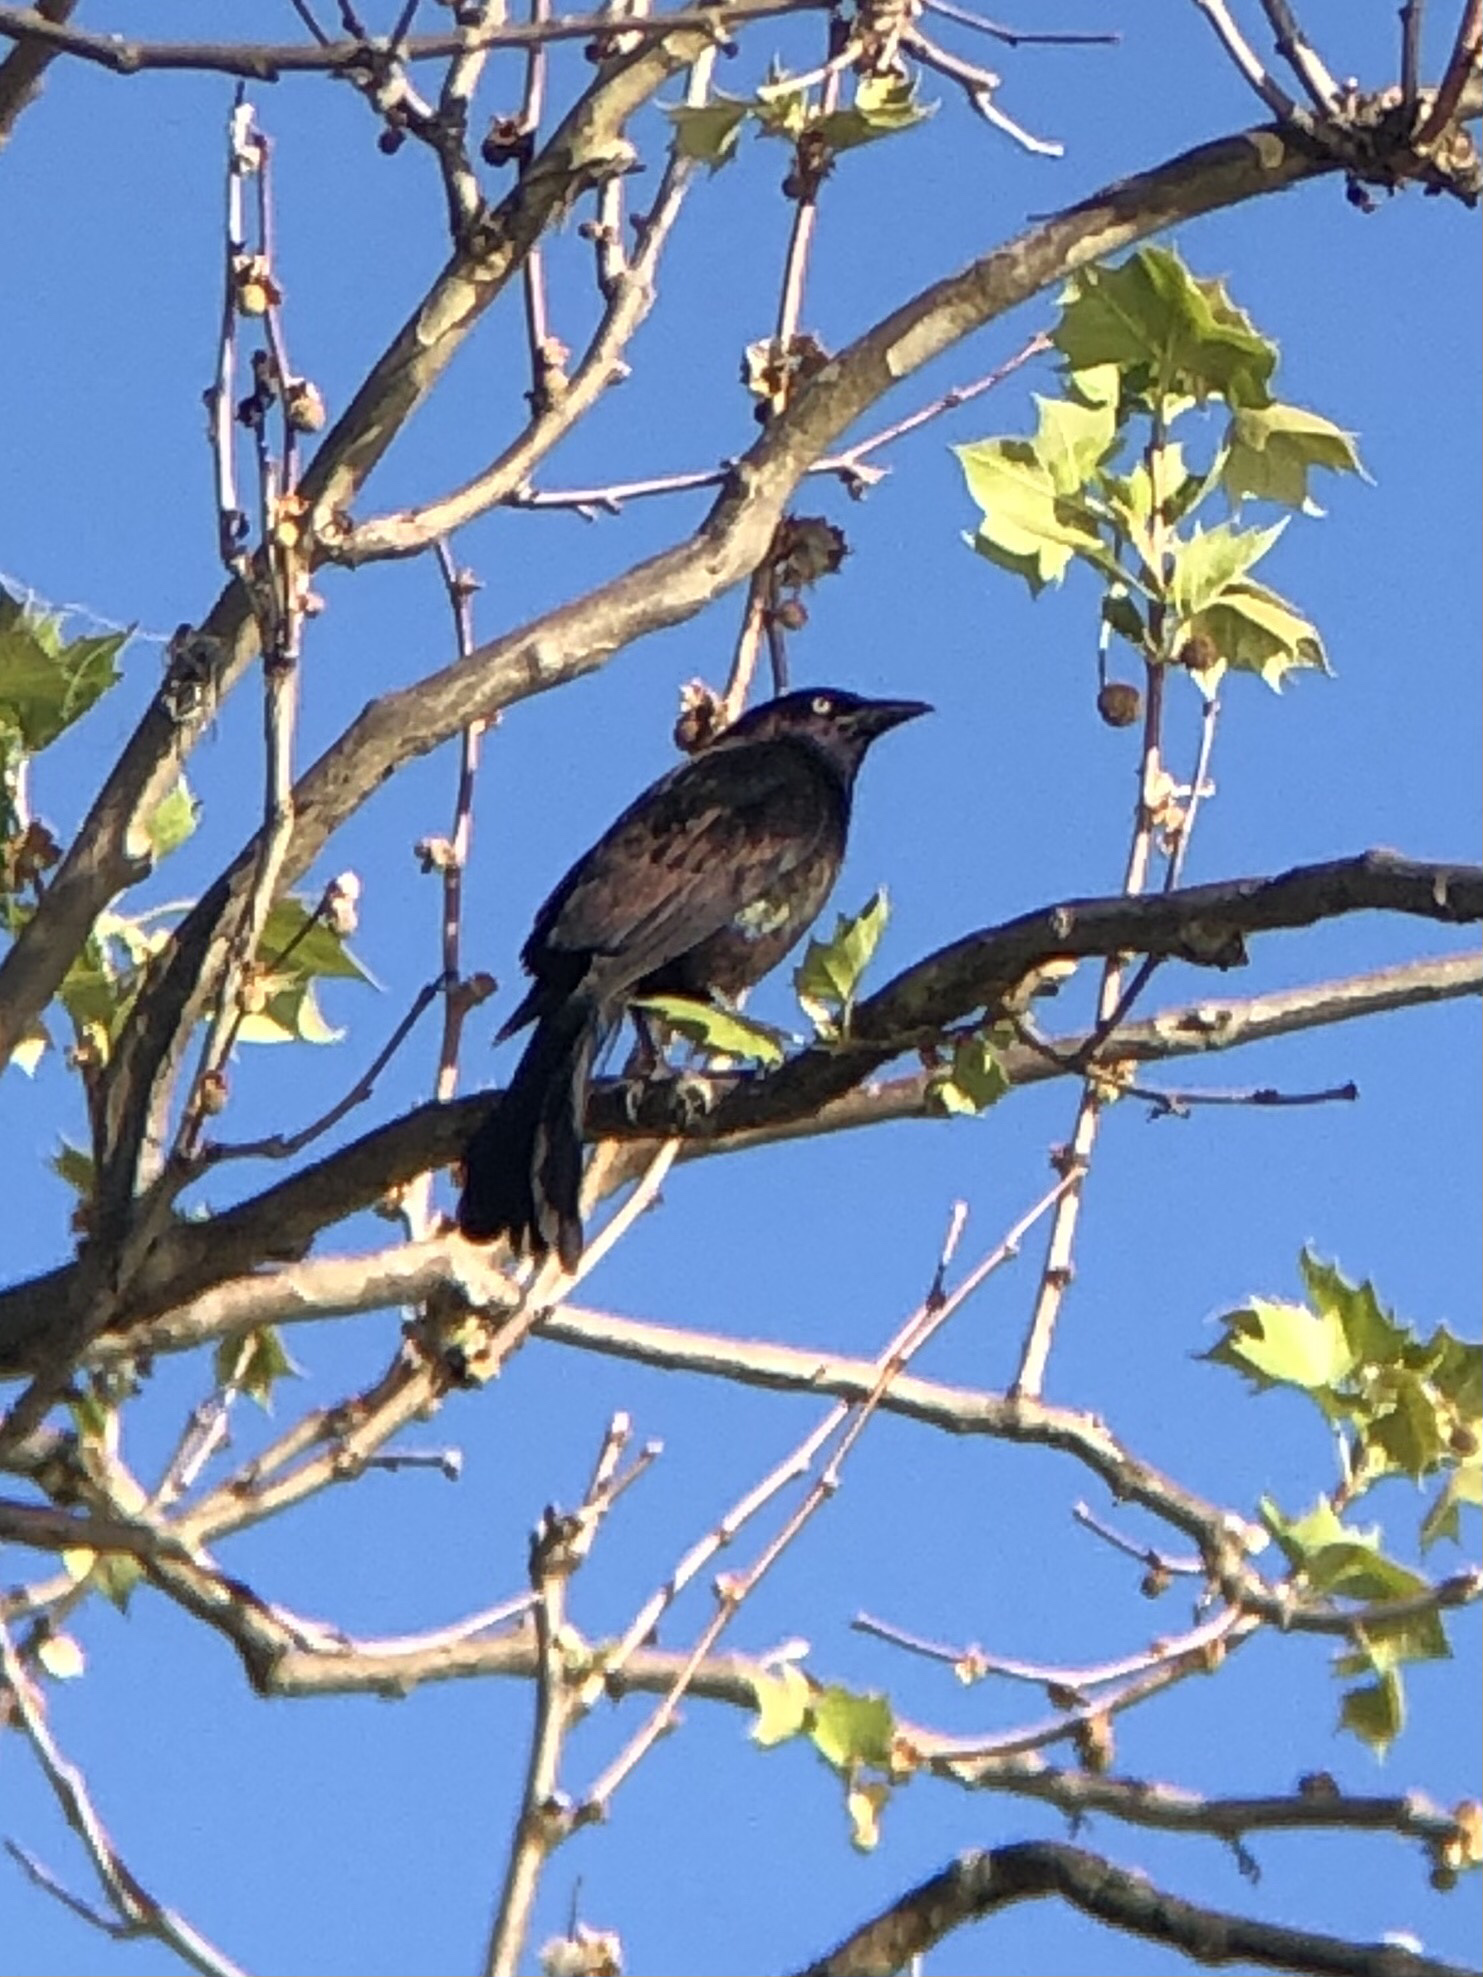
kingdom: Animalia
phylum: Chordata
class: Aves
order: Passeriformes
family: Icteridae
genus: Quiscalus
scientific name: Quiscalus quiscula
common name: Common grackle
